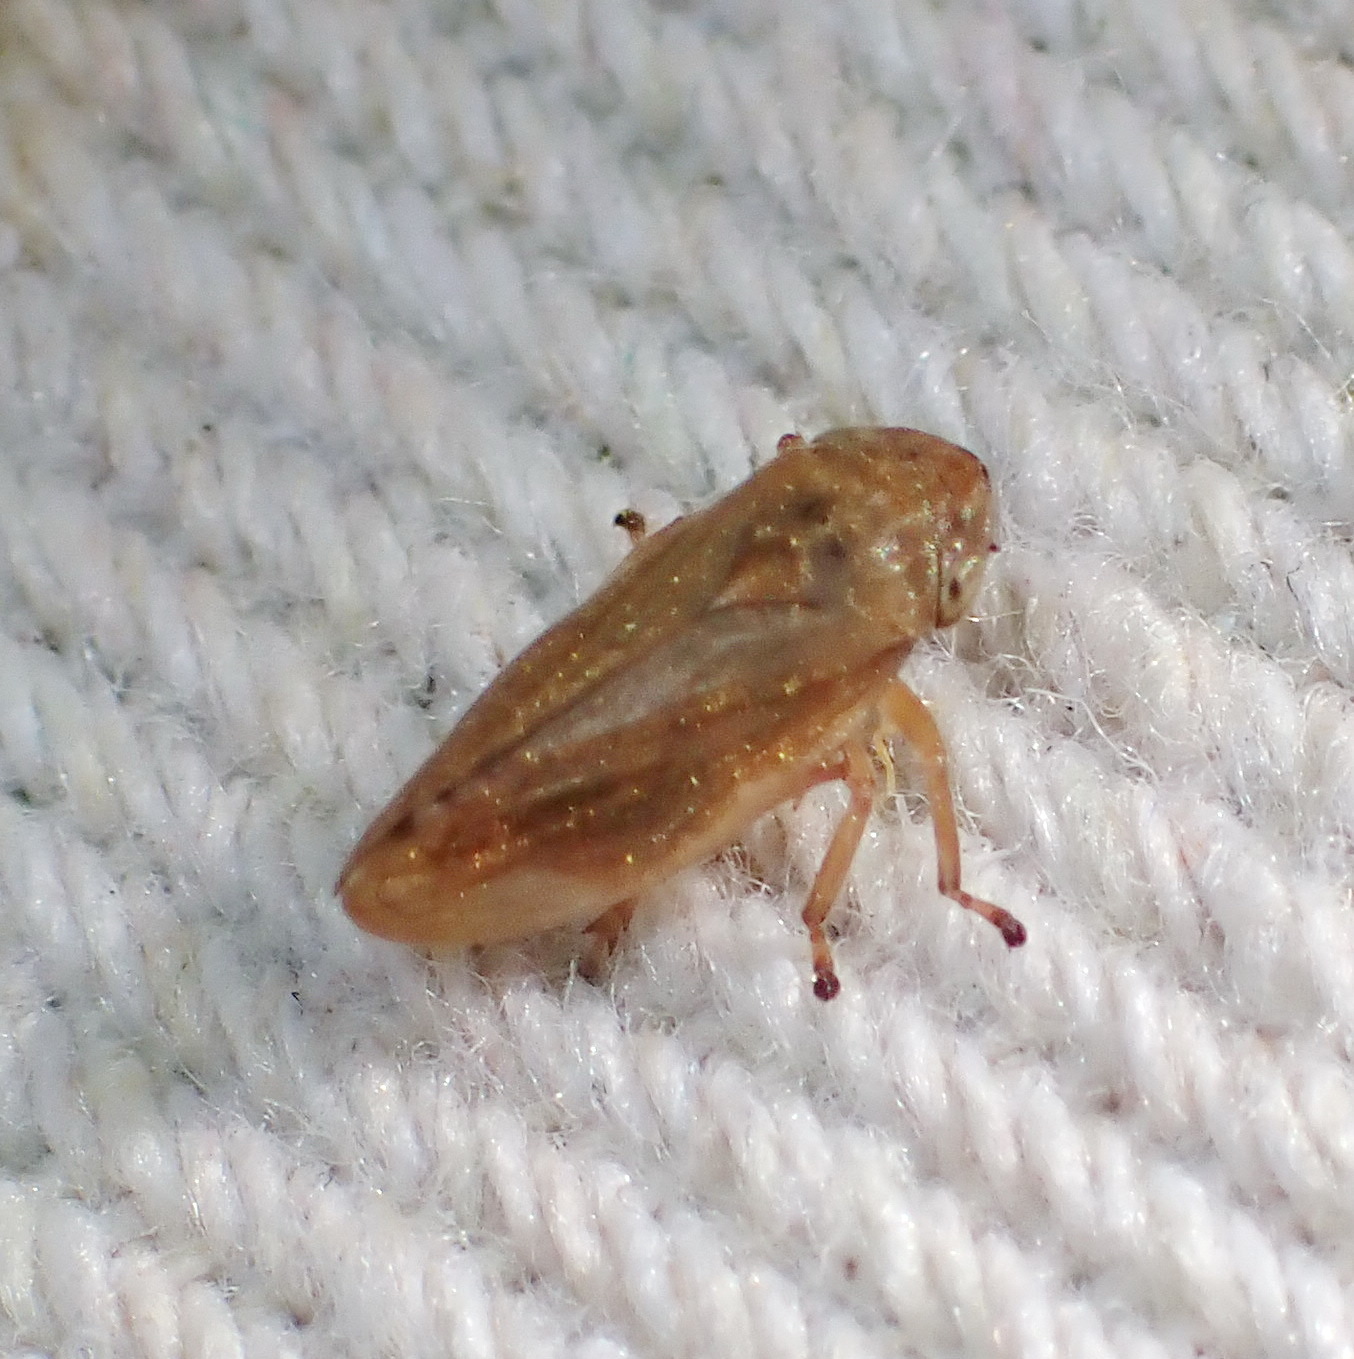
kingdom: Animalia
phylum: Arthropoda
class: Insecta
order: Hemiptera
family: Aphrophoridae
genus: Philaenus
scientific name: Philaenus spumarius
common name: Meadow spittlebug
